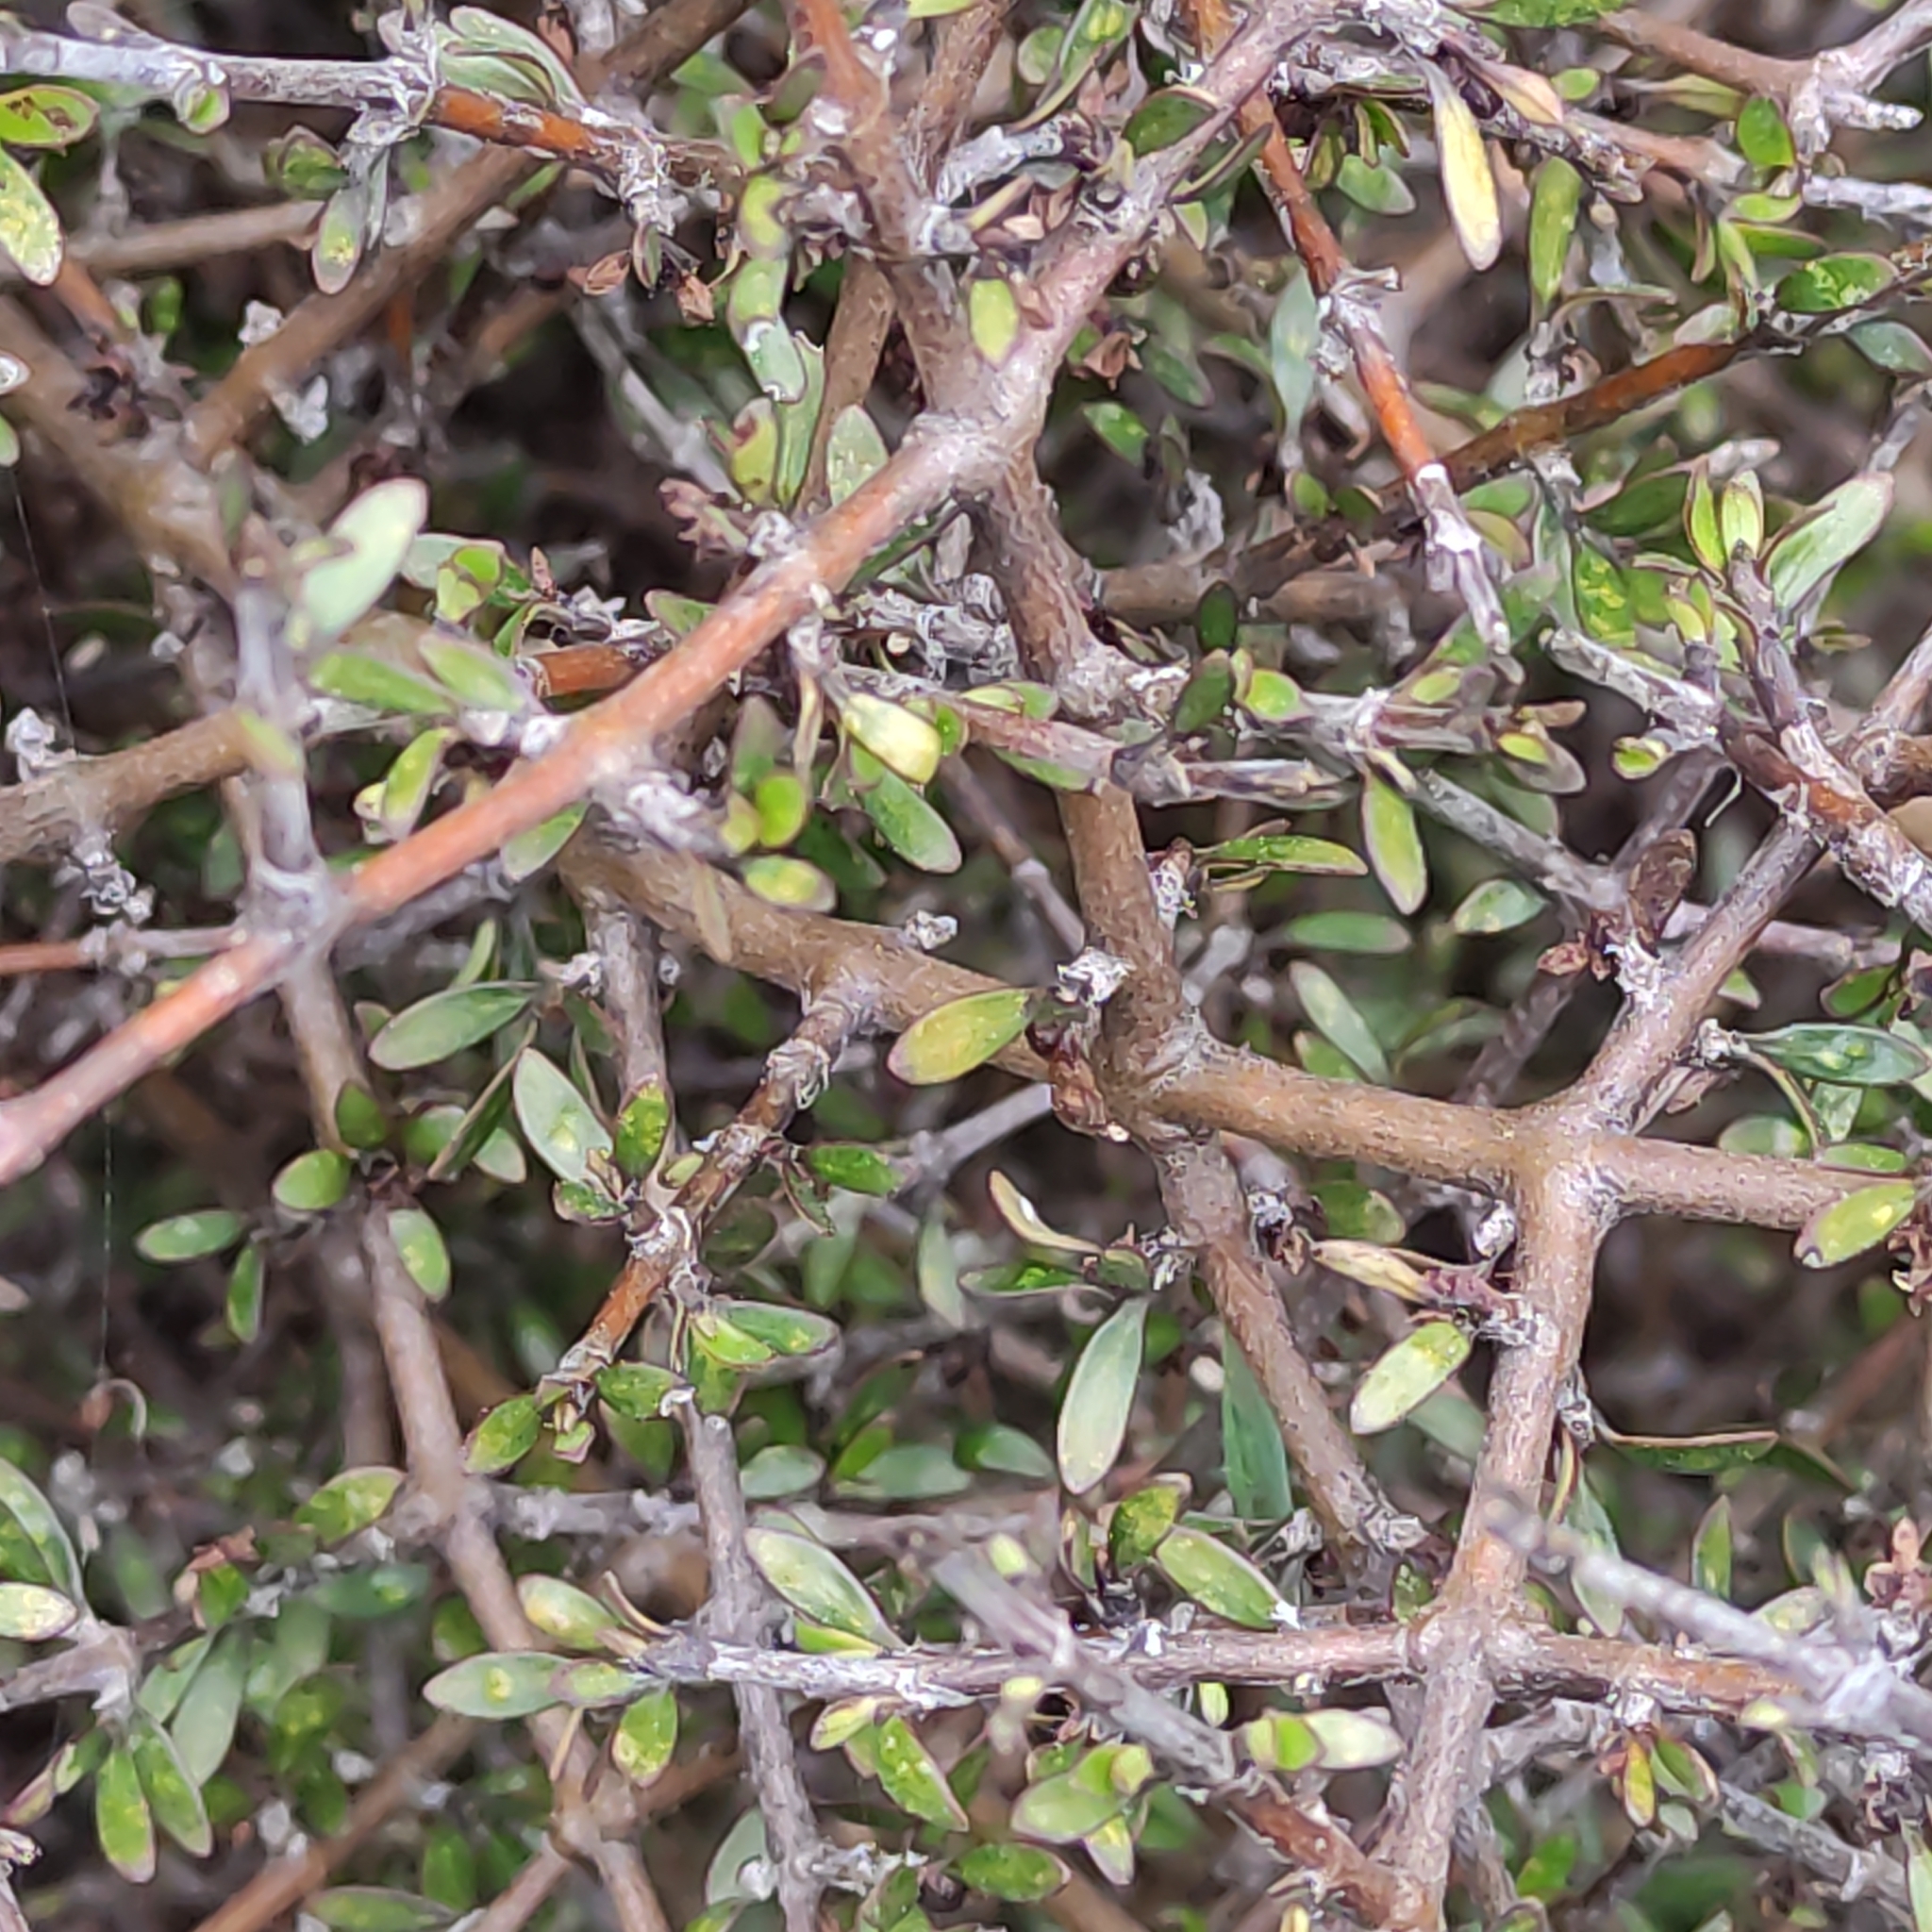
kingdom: Plantae
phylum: Tracheophyta
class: Magnoliopsida
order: Gentianales
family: Rubiaceae
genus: Coprosma
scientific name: Coprosma propinqua
